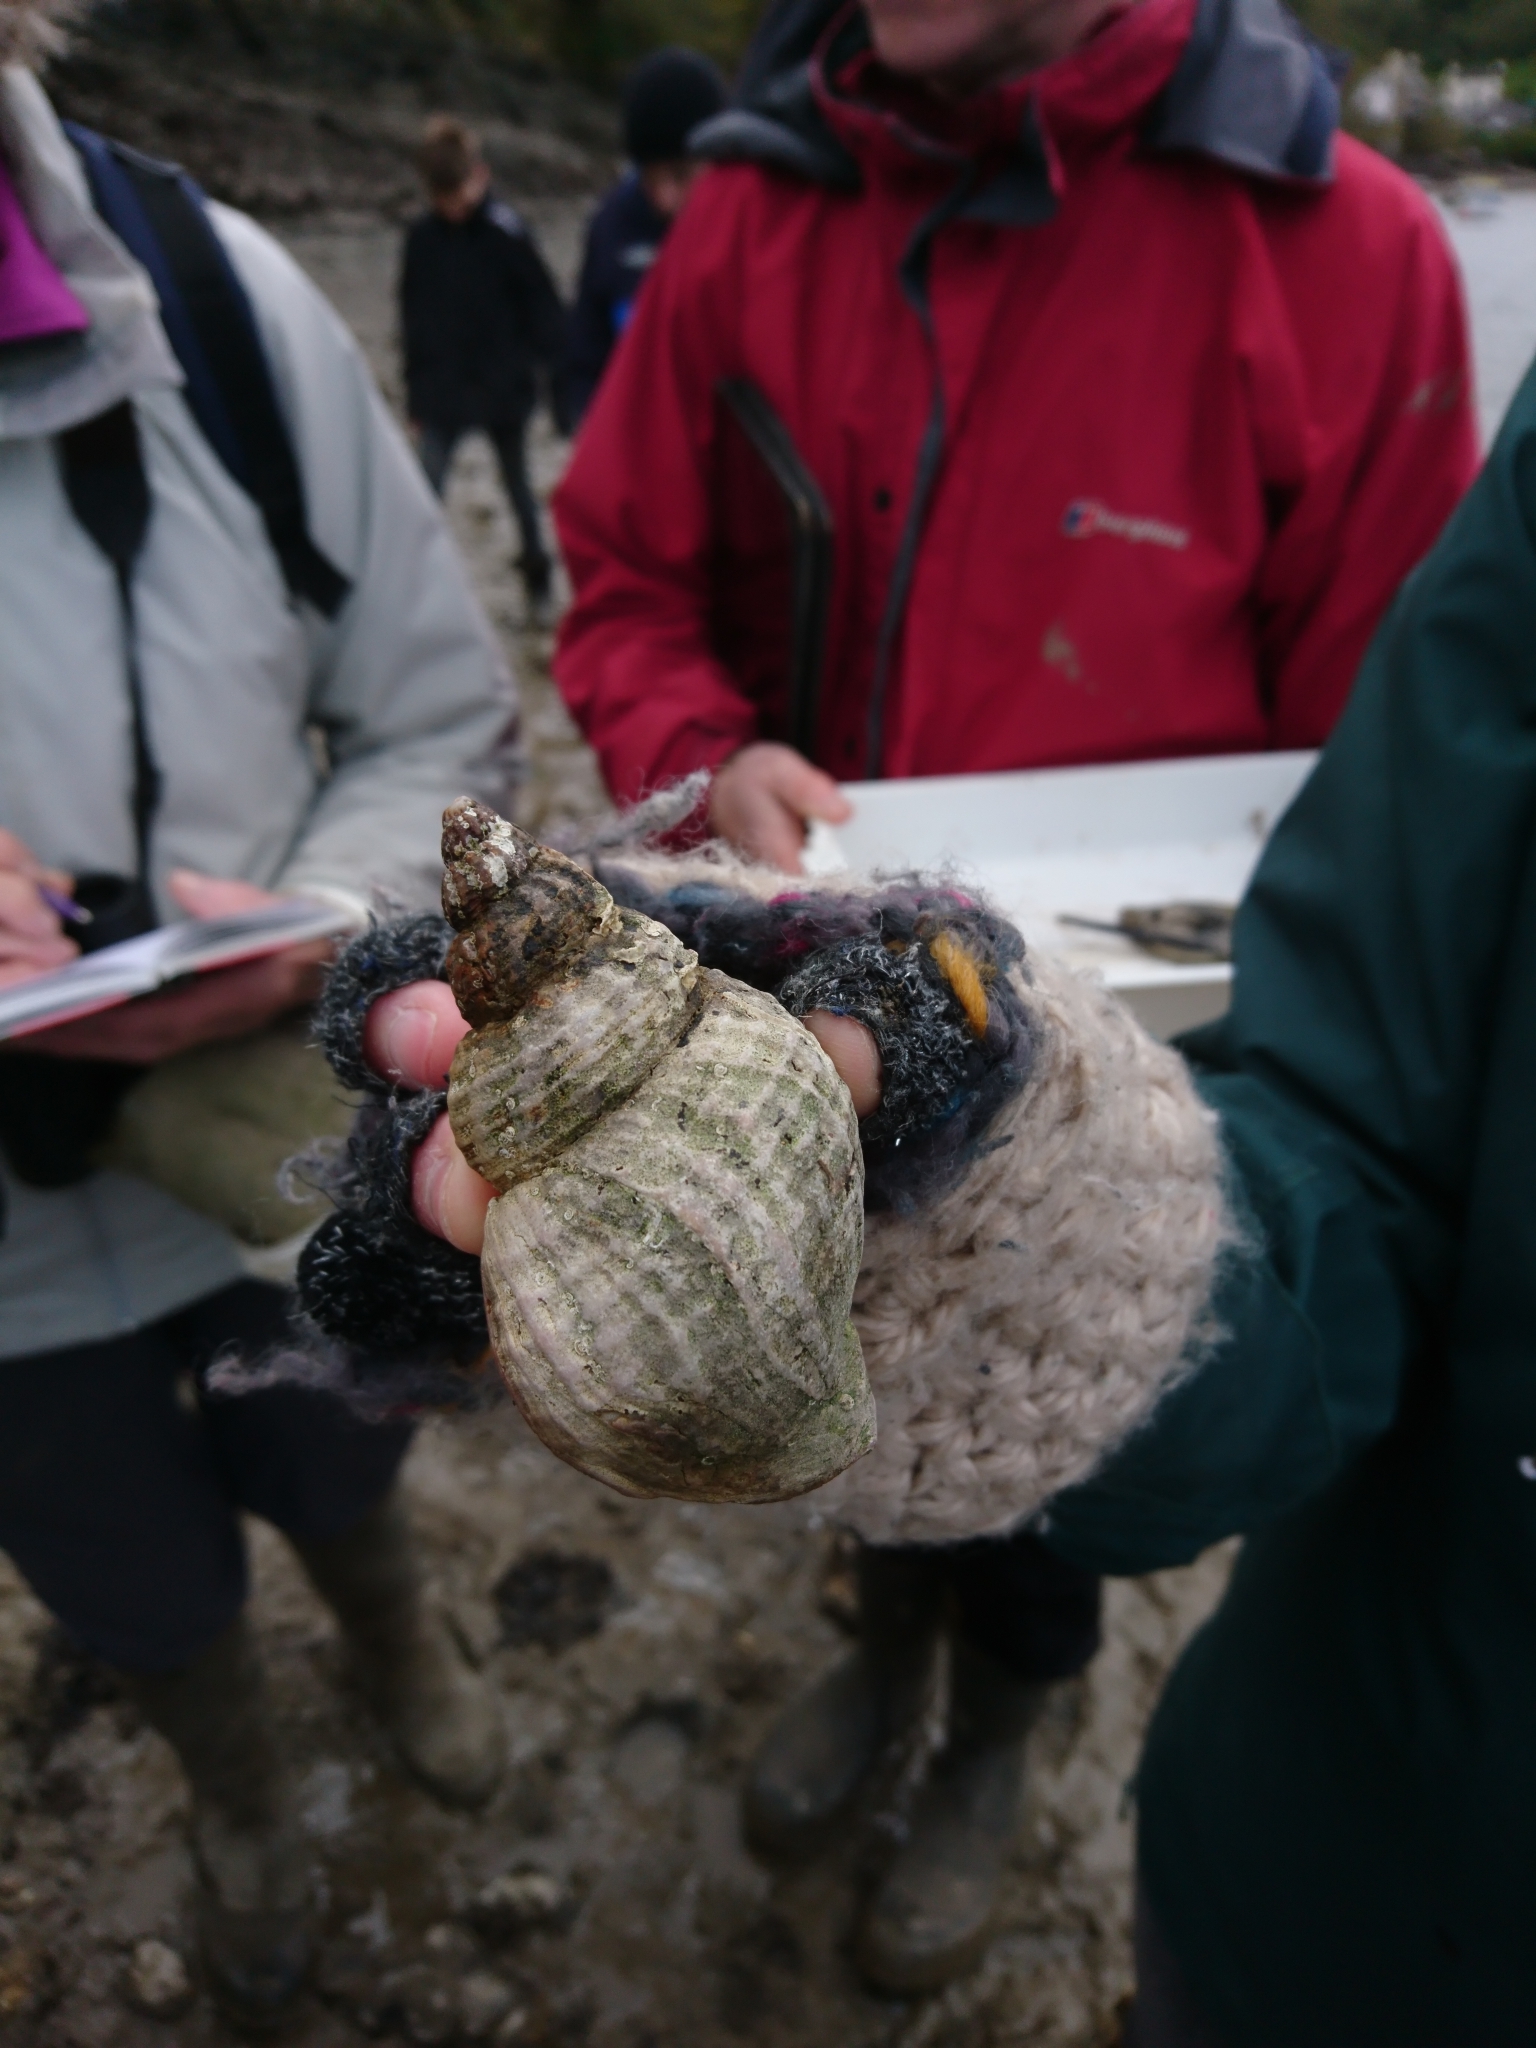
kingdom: Animalia
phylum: Mollusca
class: Gastropoda
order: Neogastropoda
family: Buccinidae
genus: Buccinum
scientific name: Buccinum undatum
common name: Common whelk
